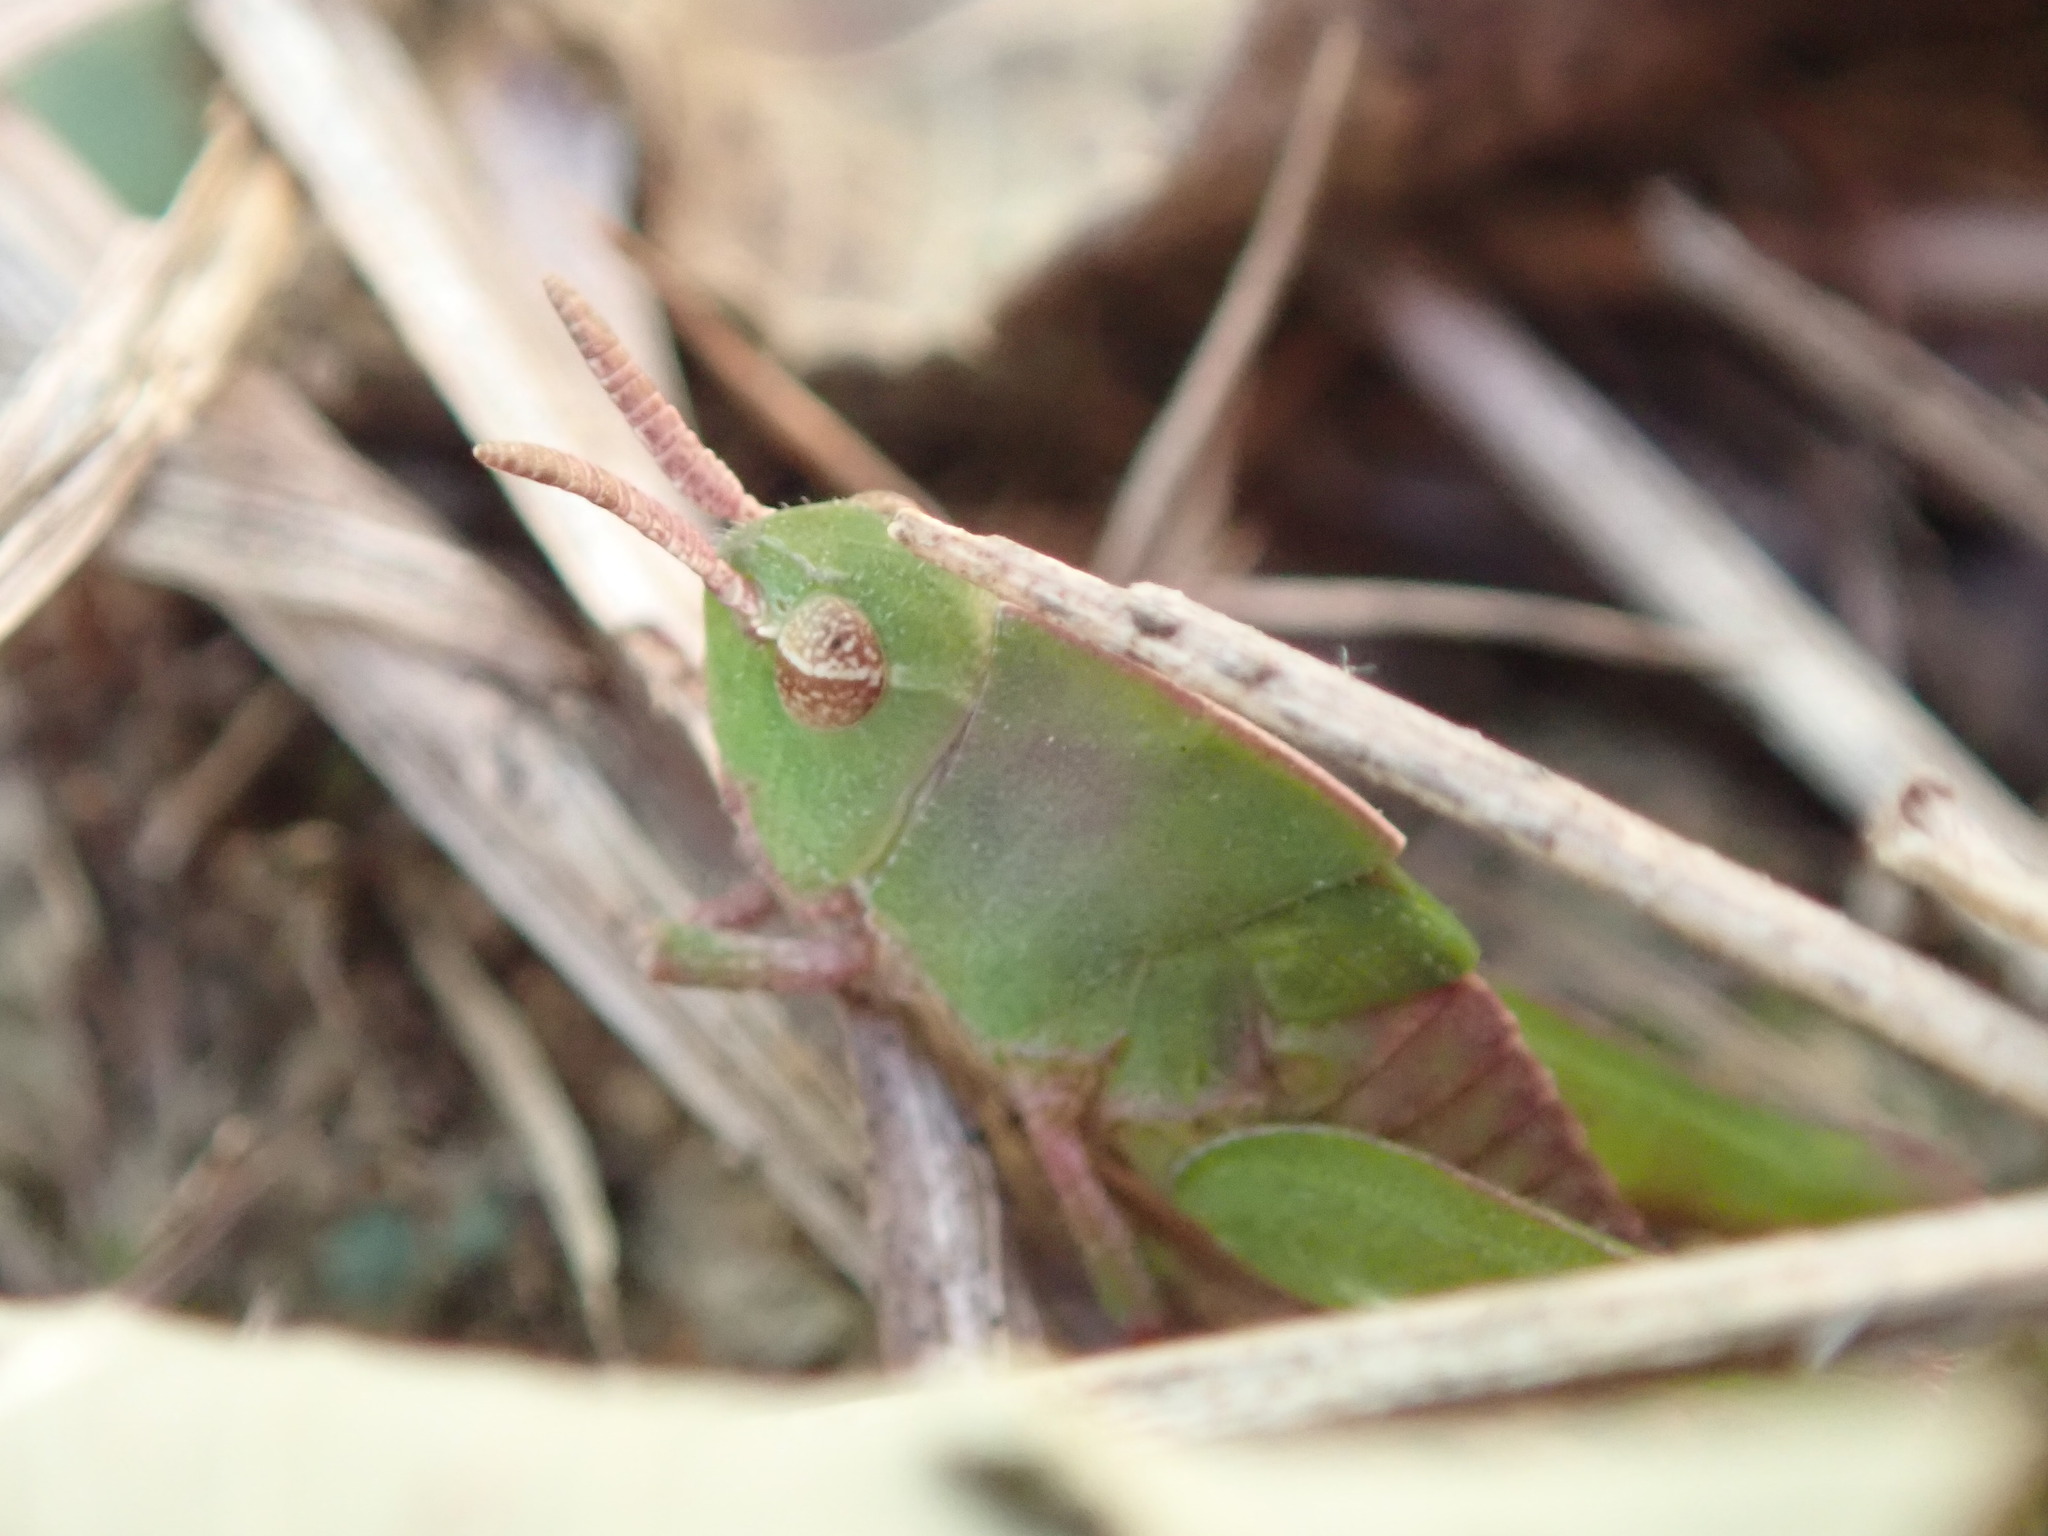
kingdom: Animalia
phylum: Arthropoda
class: Insecta
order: Orthoptera
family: Acrididae
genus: Chortophaga
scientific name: Chortophaga viridifasciata
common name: Green-striped grasshopper
